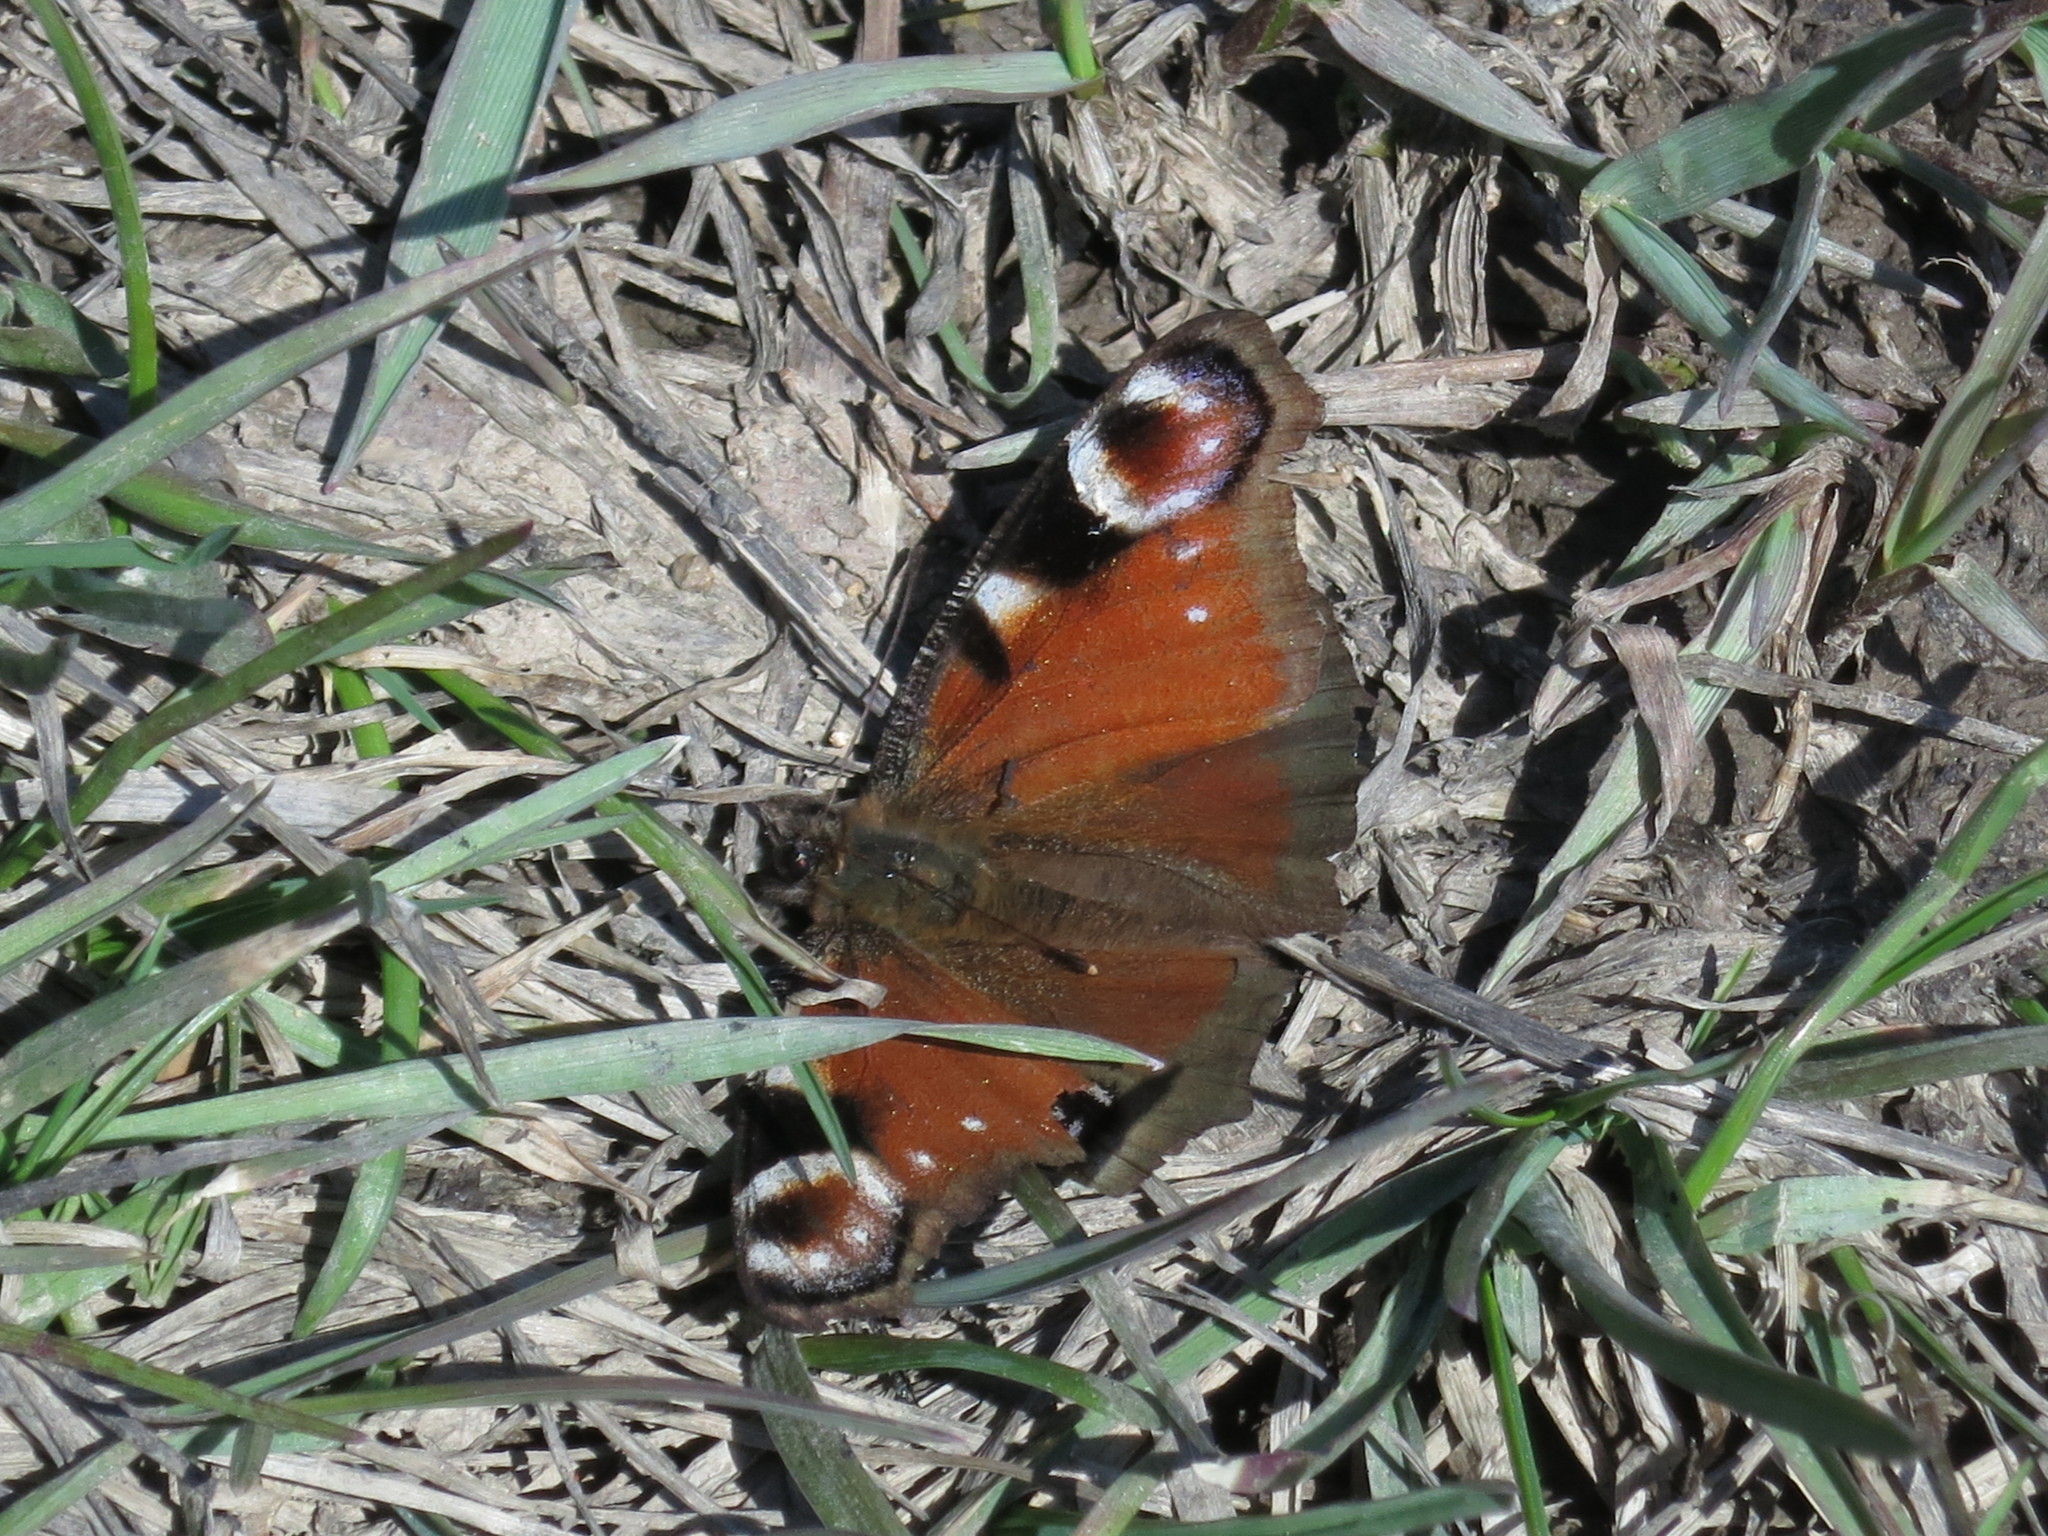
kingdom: Animalia
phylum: Arthropoda
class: Insecta
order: Lepidoptera
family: Nymphalidae
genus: Aglais
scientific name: Aglais io
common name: Peacock
